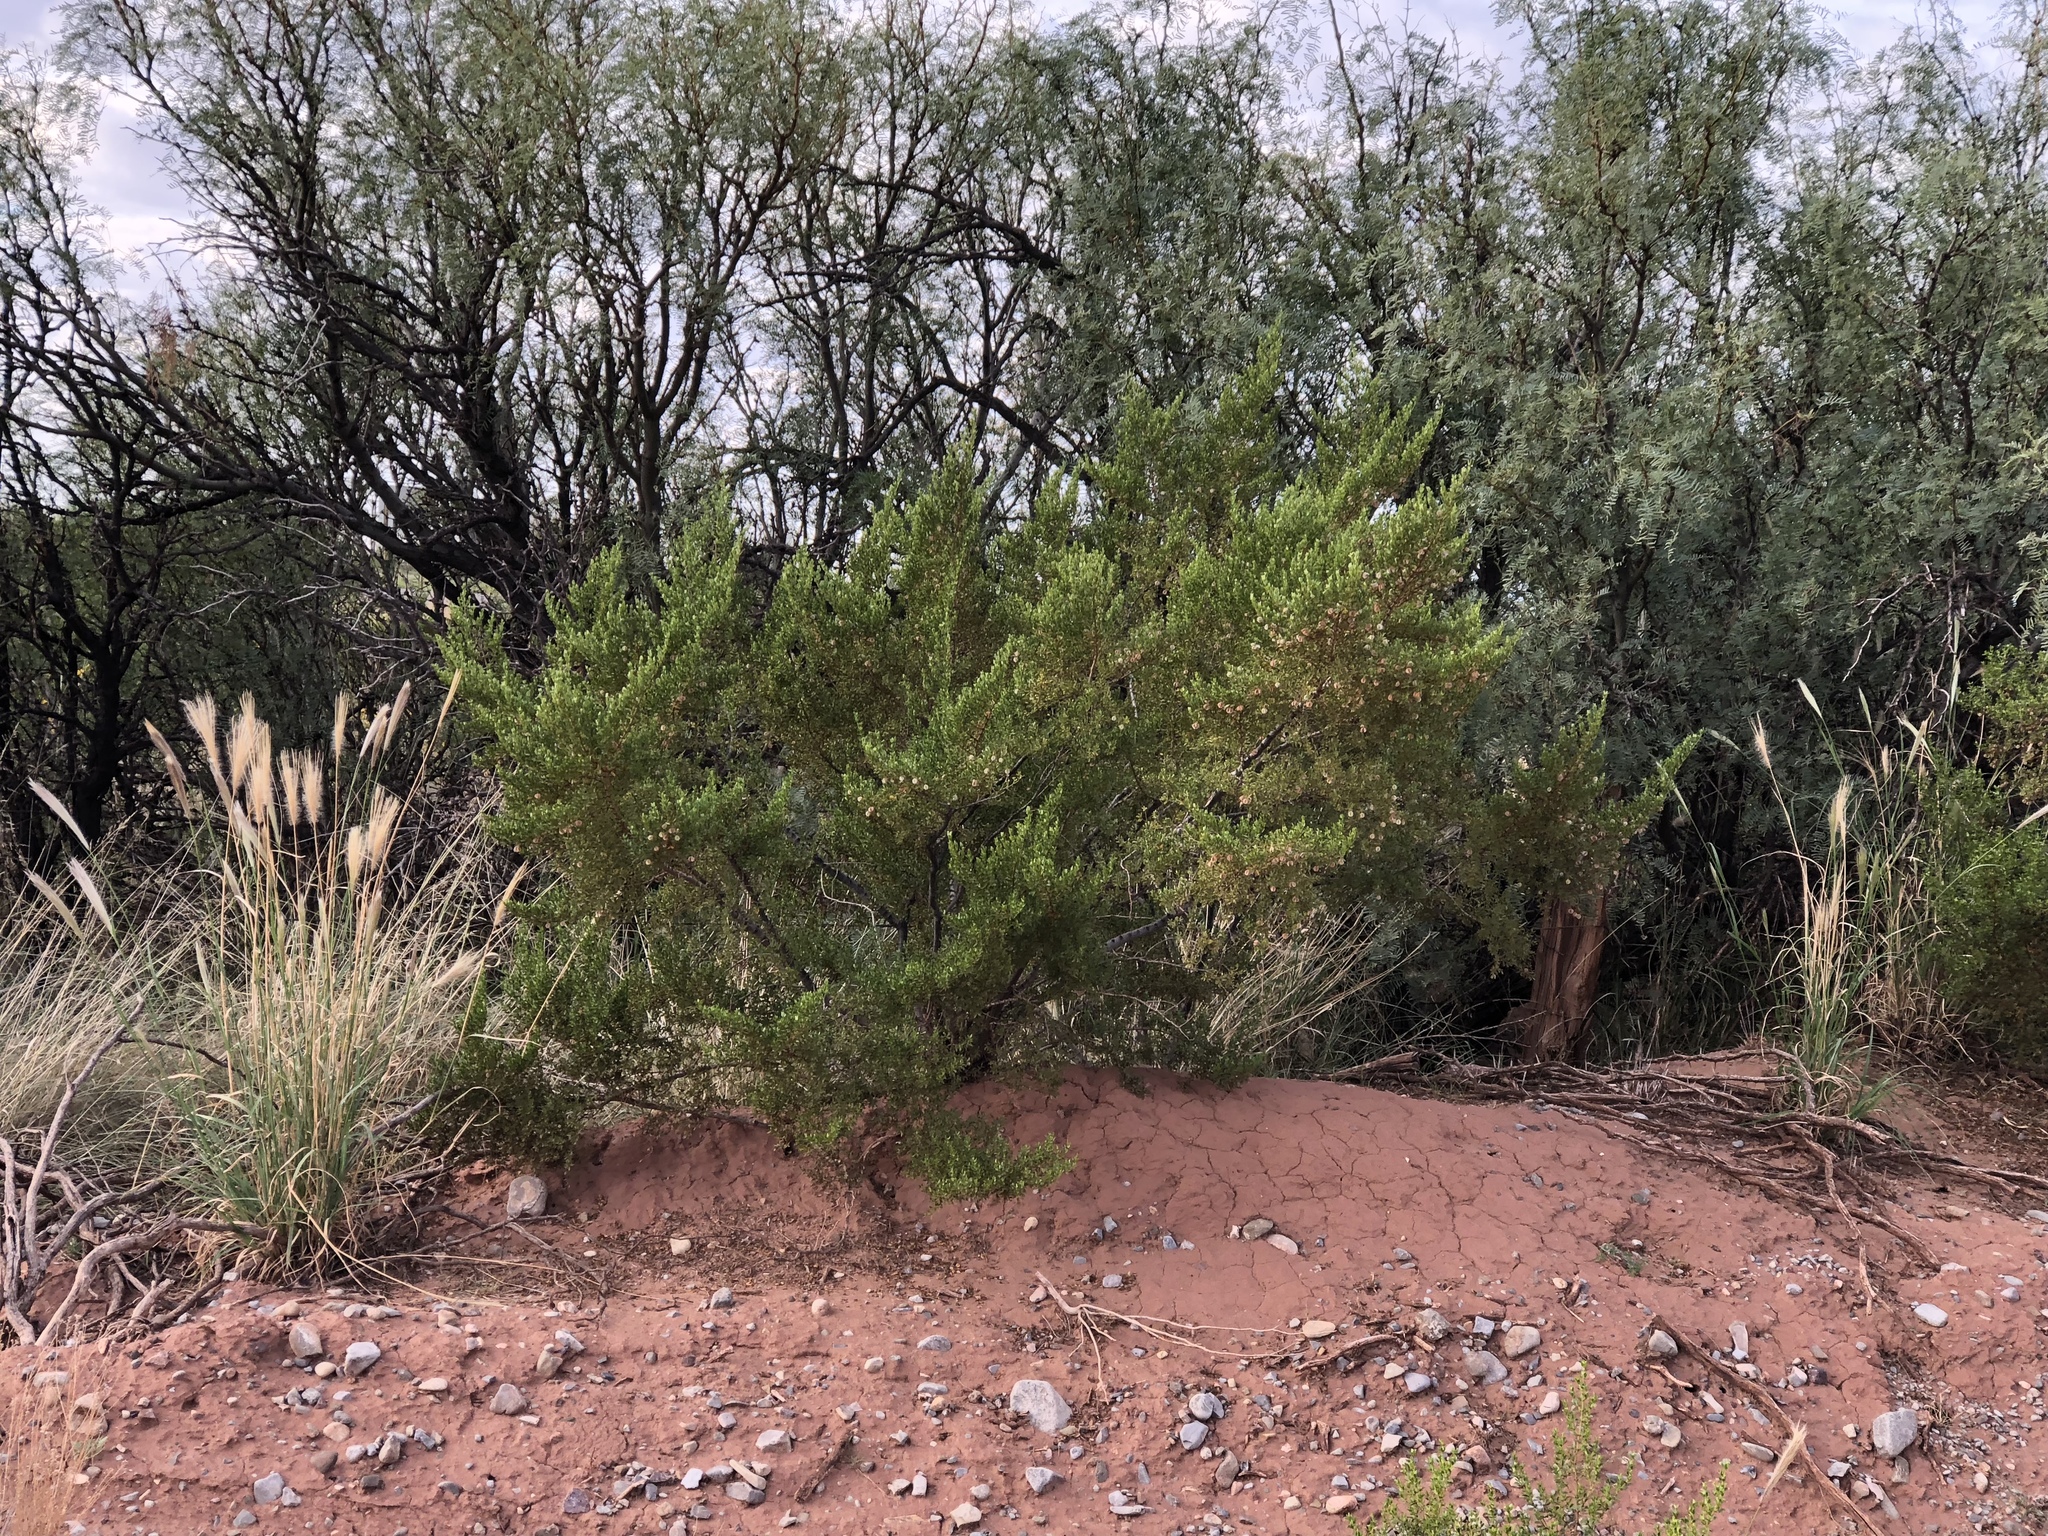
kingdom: Plantae
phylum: Tracheophyta
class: Magnoliopsida
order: Zygophyllales
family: Zygophyllaceae
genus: Larrea
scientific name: Larrea tridentata
